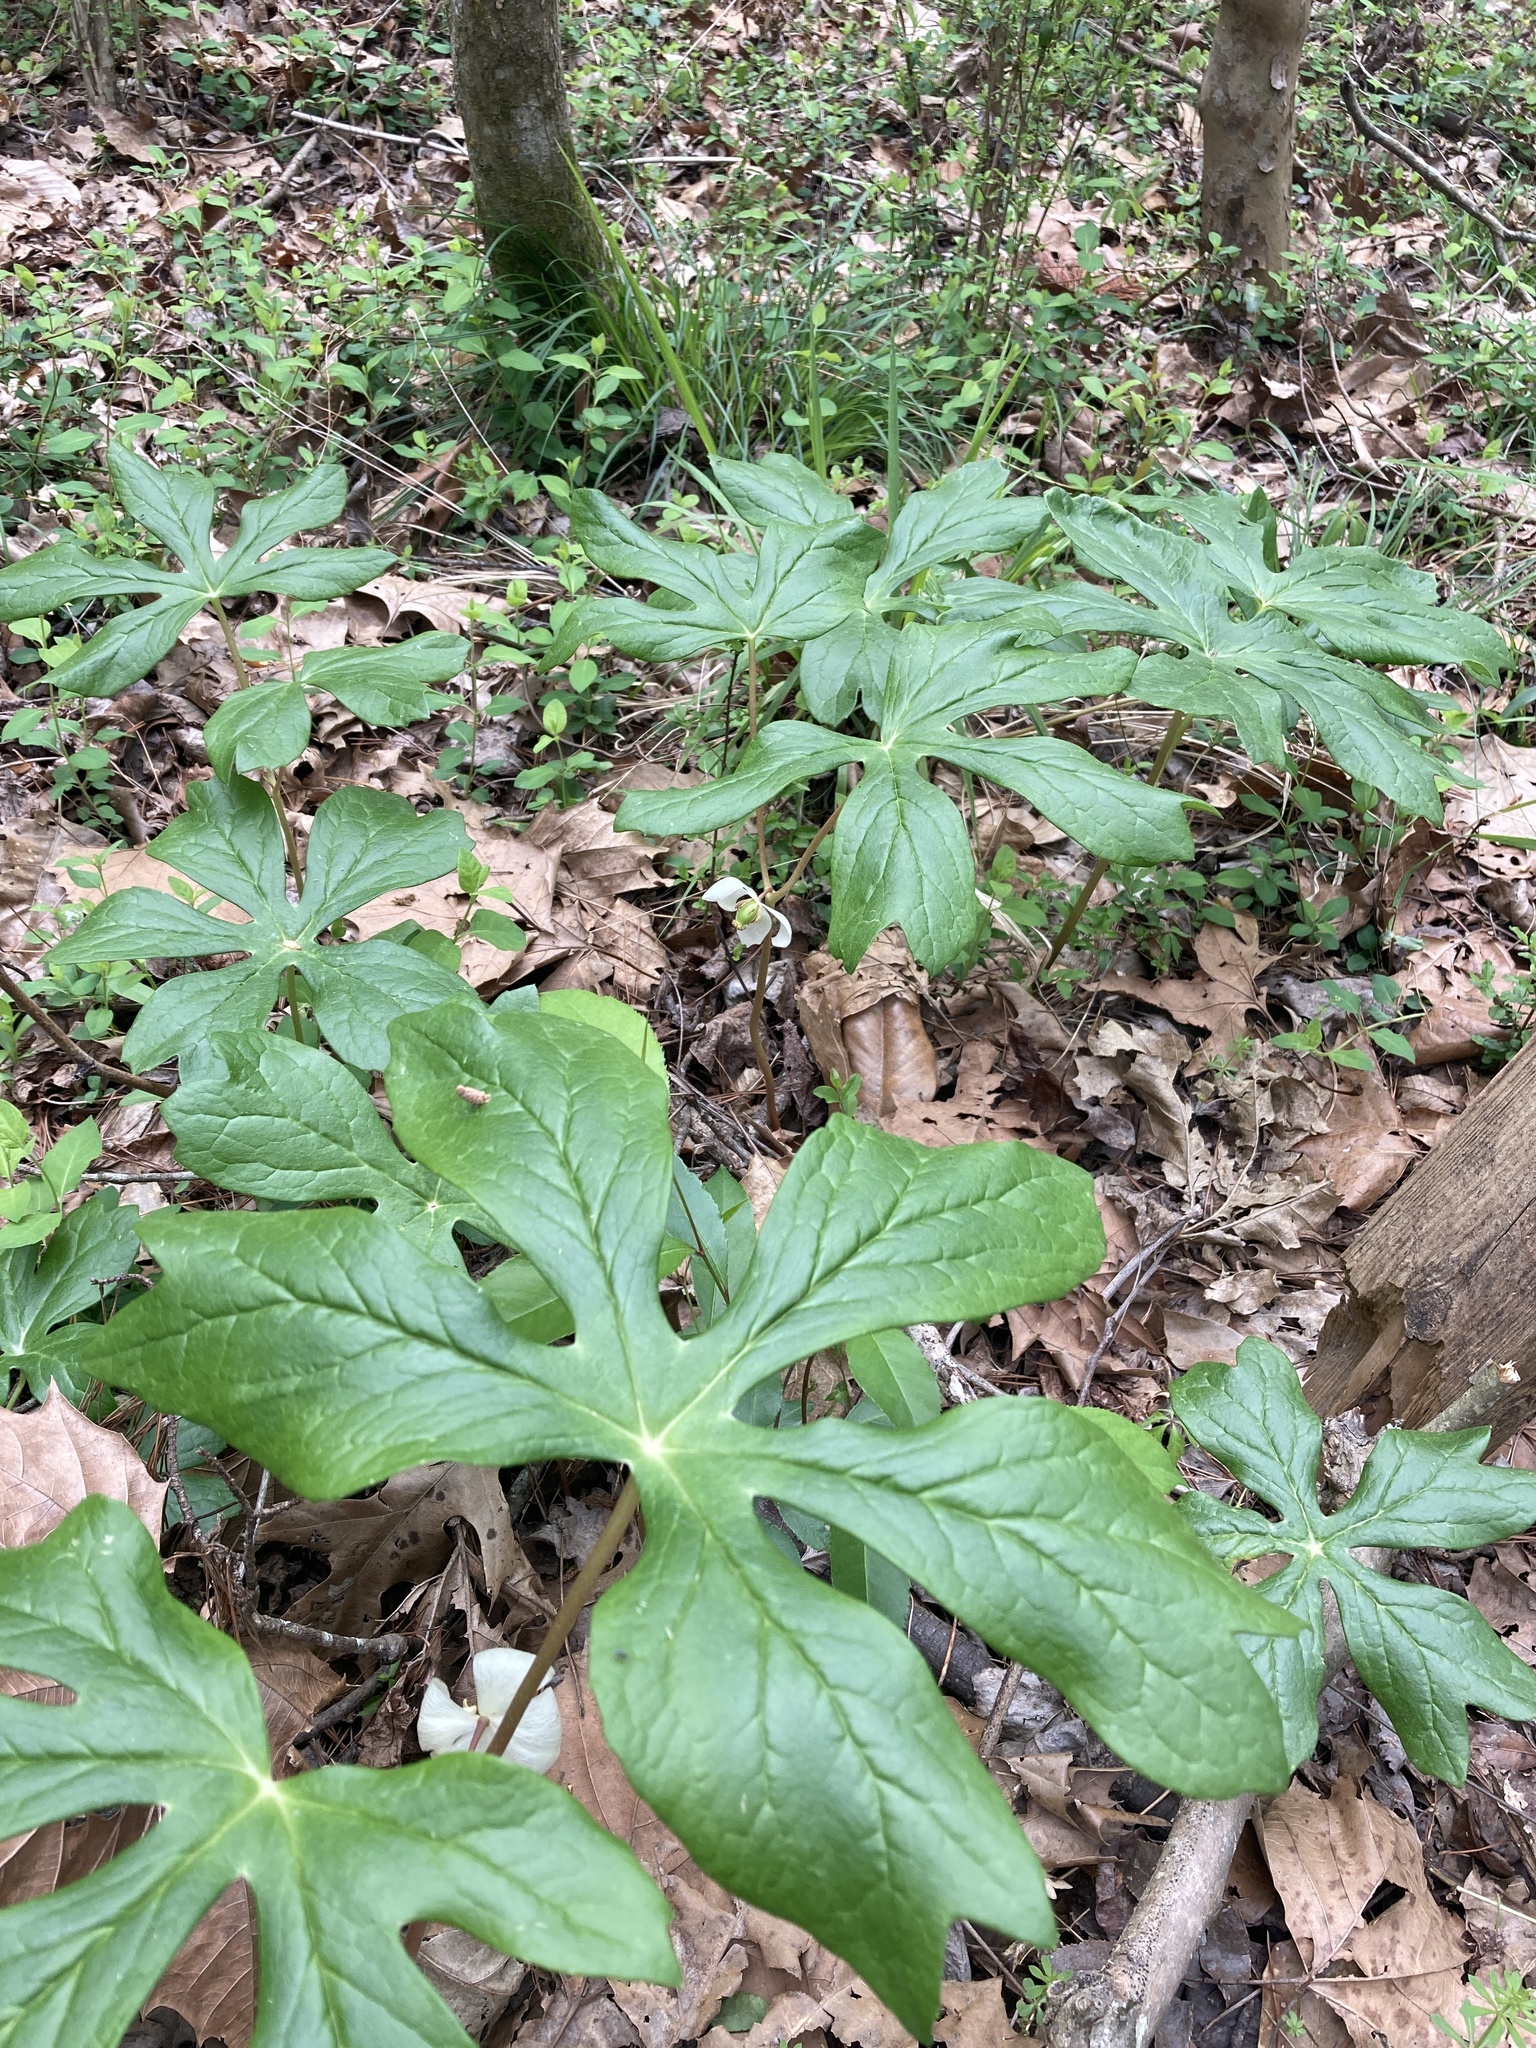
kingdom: Plantae
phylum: Tracheophyta
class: Magnoliopsida
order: Ranunculales
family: Berberidaceae
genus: Podophyllum
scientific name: Podophyllum peltatum
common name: Wild mandrake
